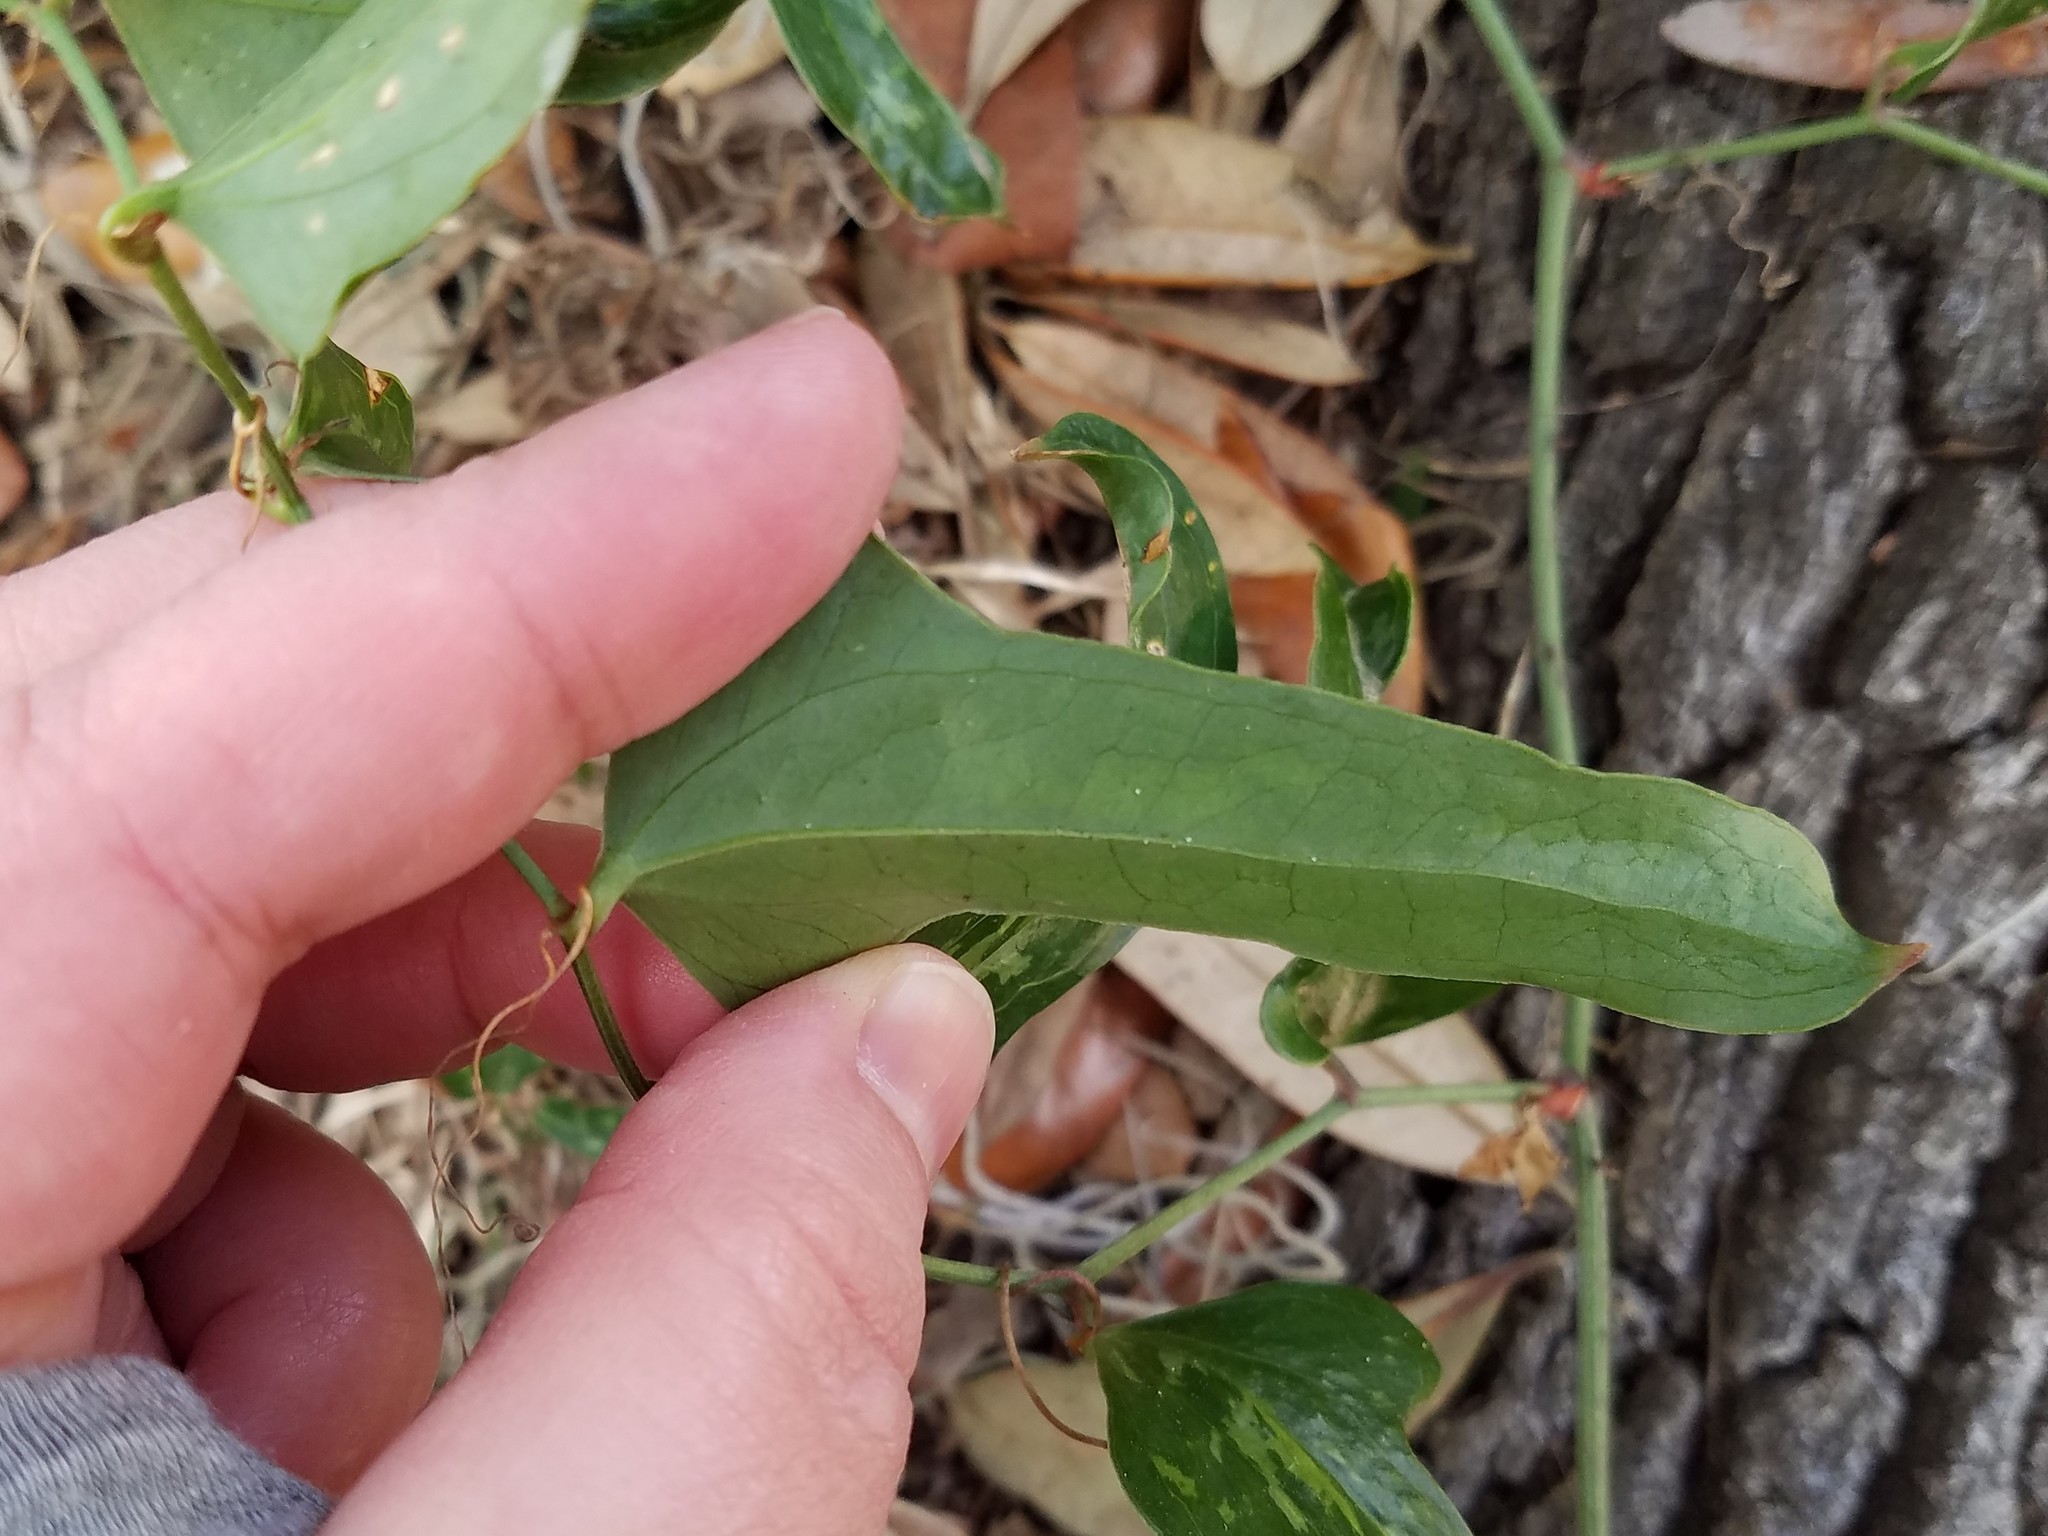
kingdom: Plantae
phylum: Tracheophyta
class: Liliopsida
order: Liliales
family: Smilacaceae
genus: Smilax
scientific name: Smilax bona-nox
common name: Catbrier
